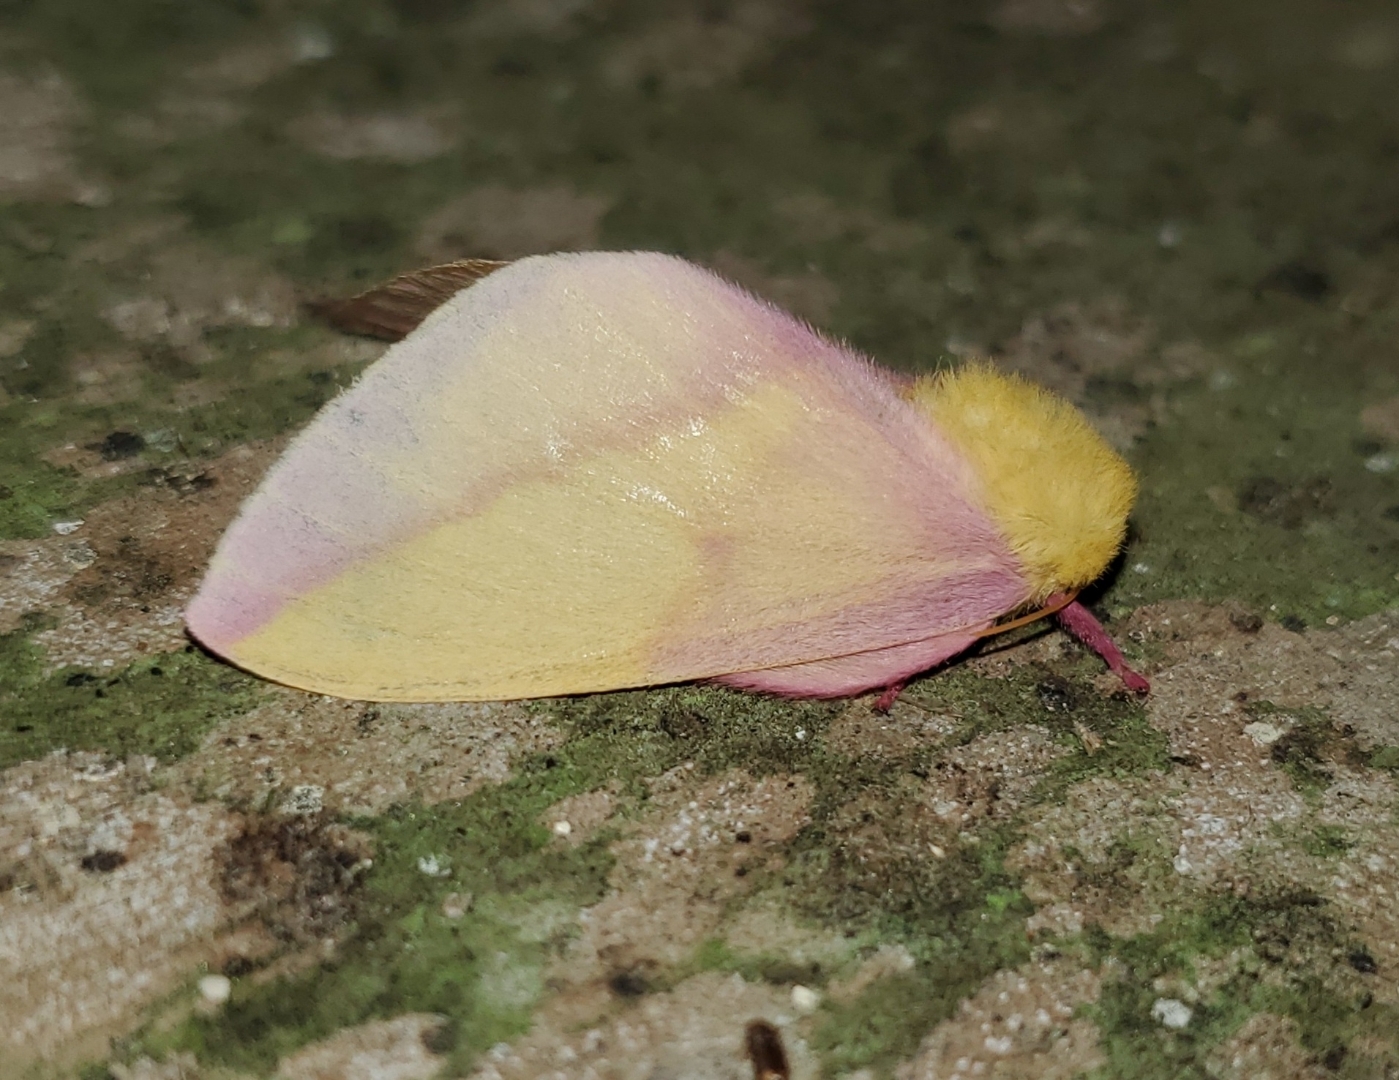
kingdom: Animalia
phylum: Arthropoda
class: Insecta
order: Lepidoptera
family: Saturniidae
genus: Dryocampa
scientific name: Dryocampa rubicunda
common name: Rosy maple moth
